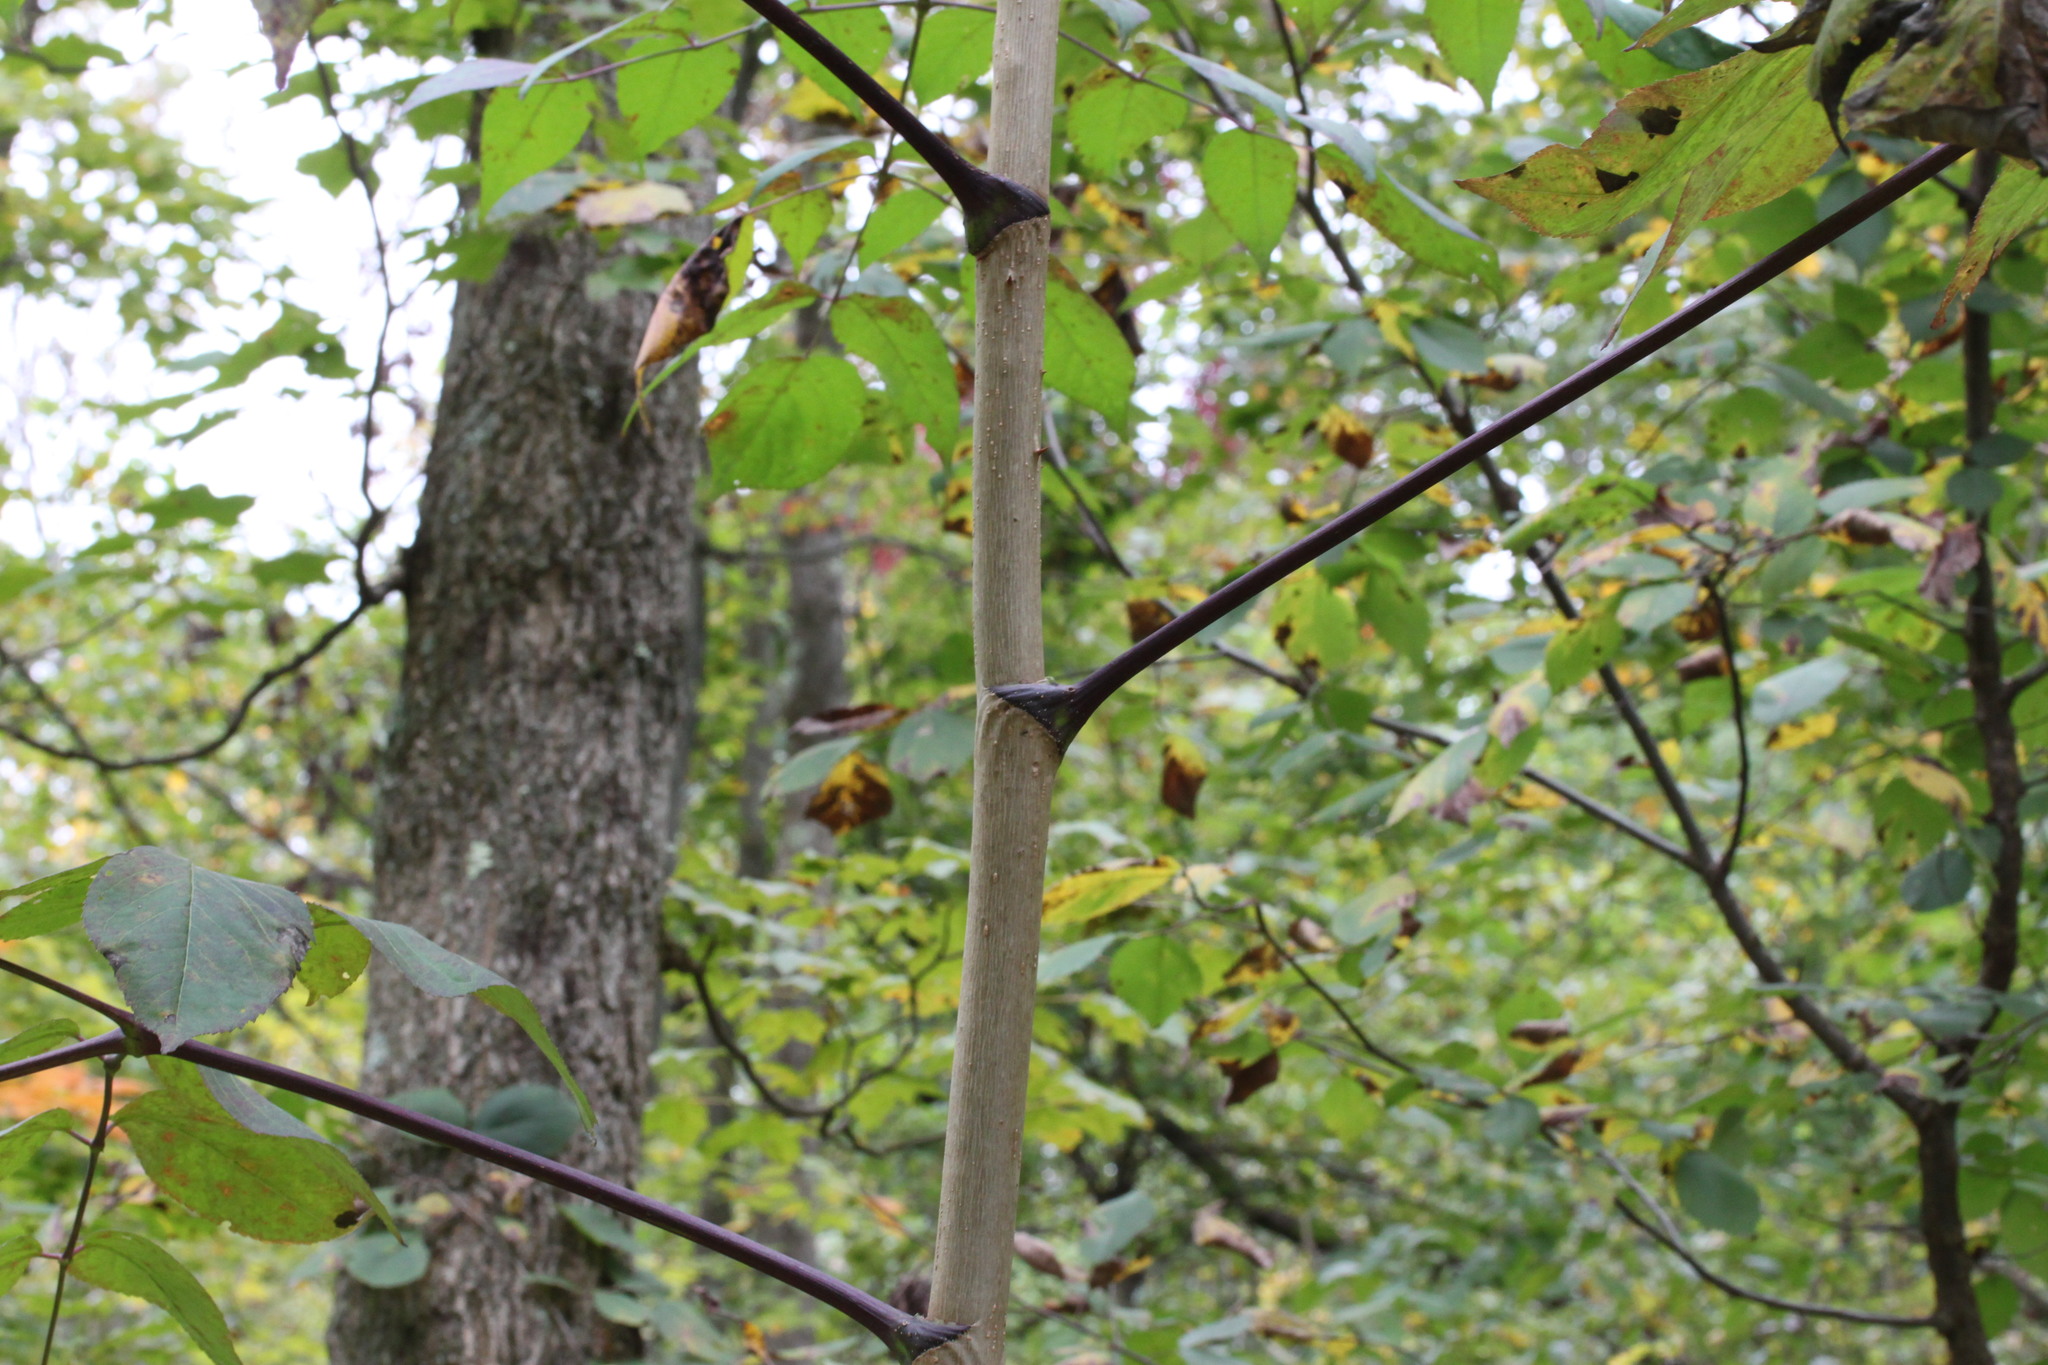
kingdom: Plantae
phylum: Tracheophyta
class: Magnoliopsida
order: Apiales
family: Araliaceae
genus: Aralia
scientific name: Aralia spinosa
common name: Hercules'-club
